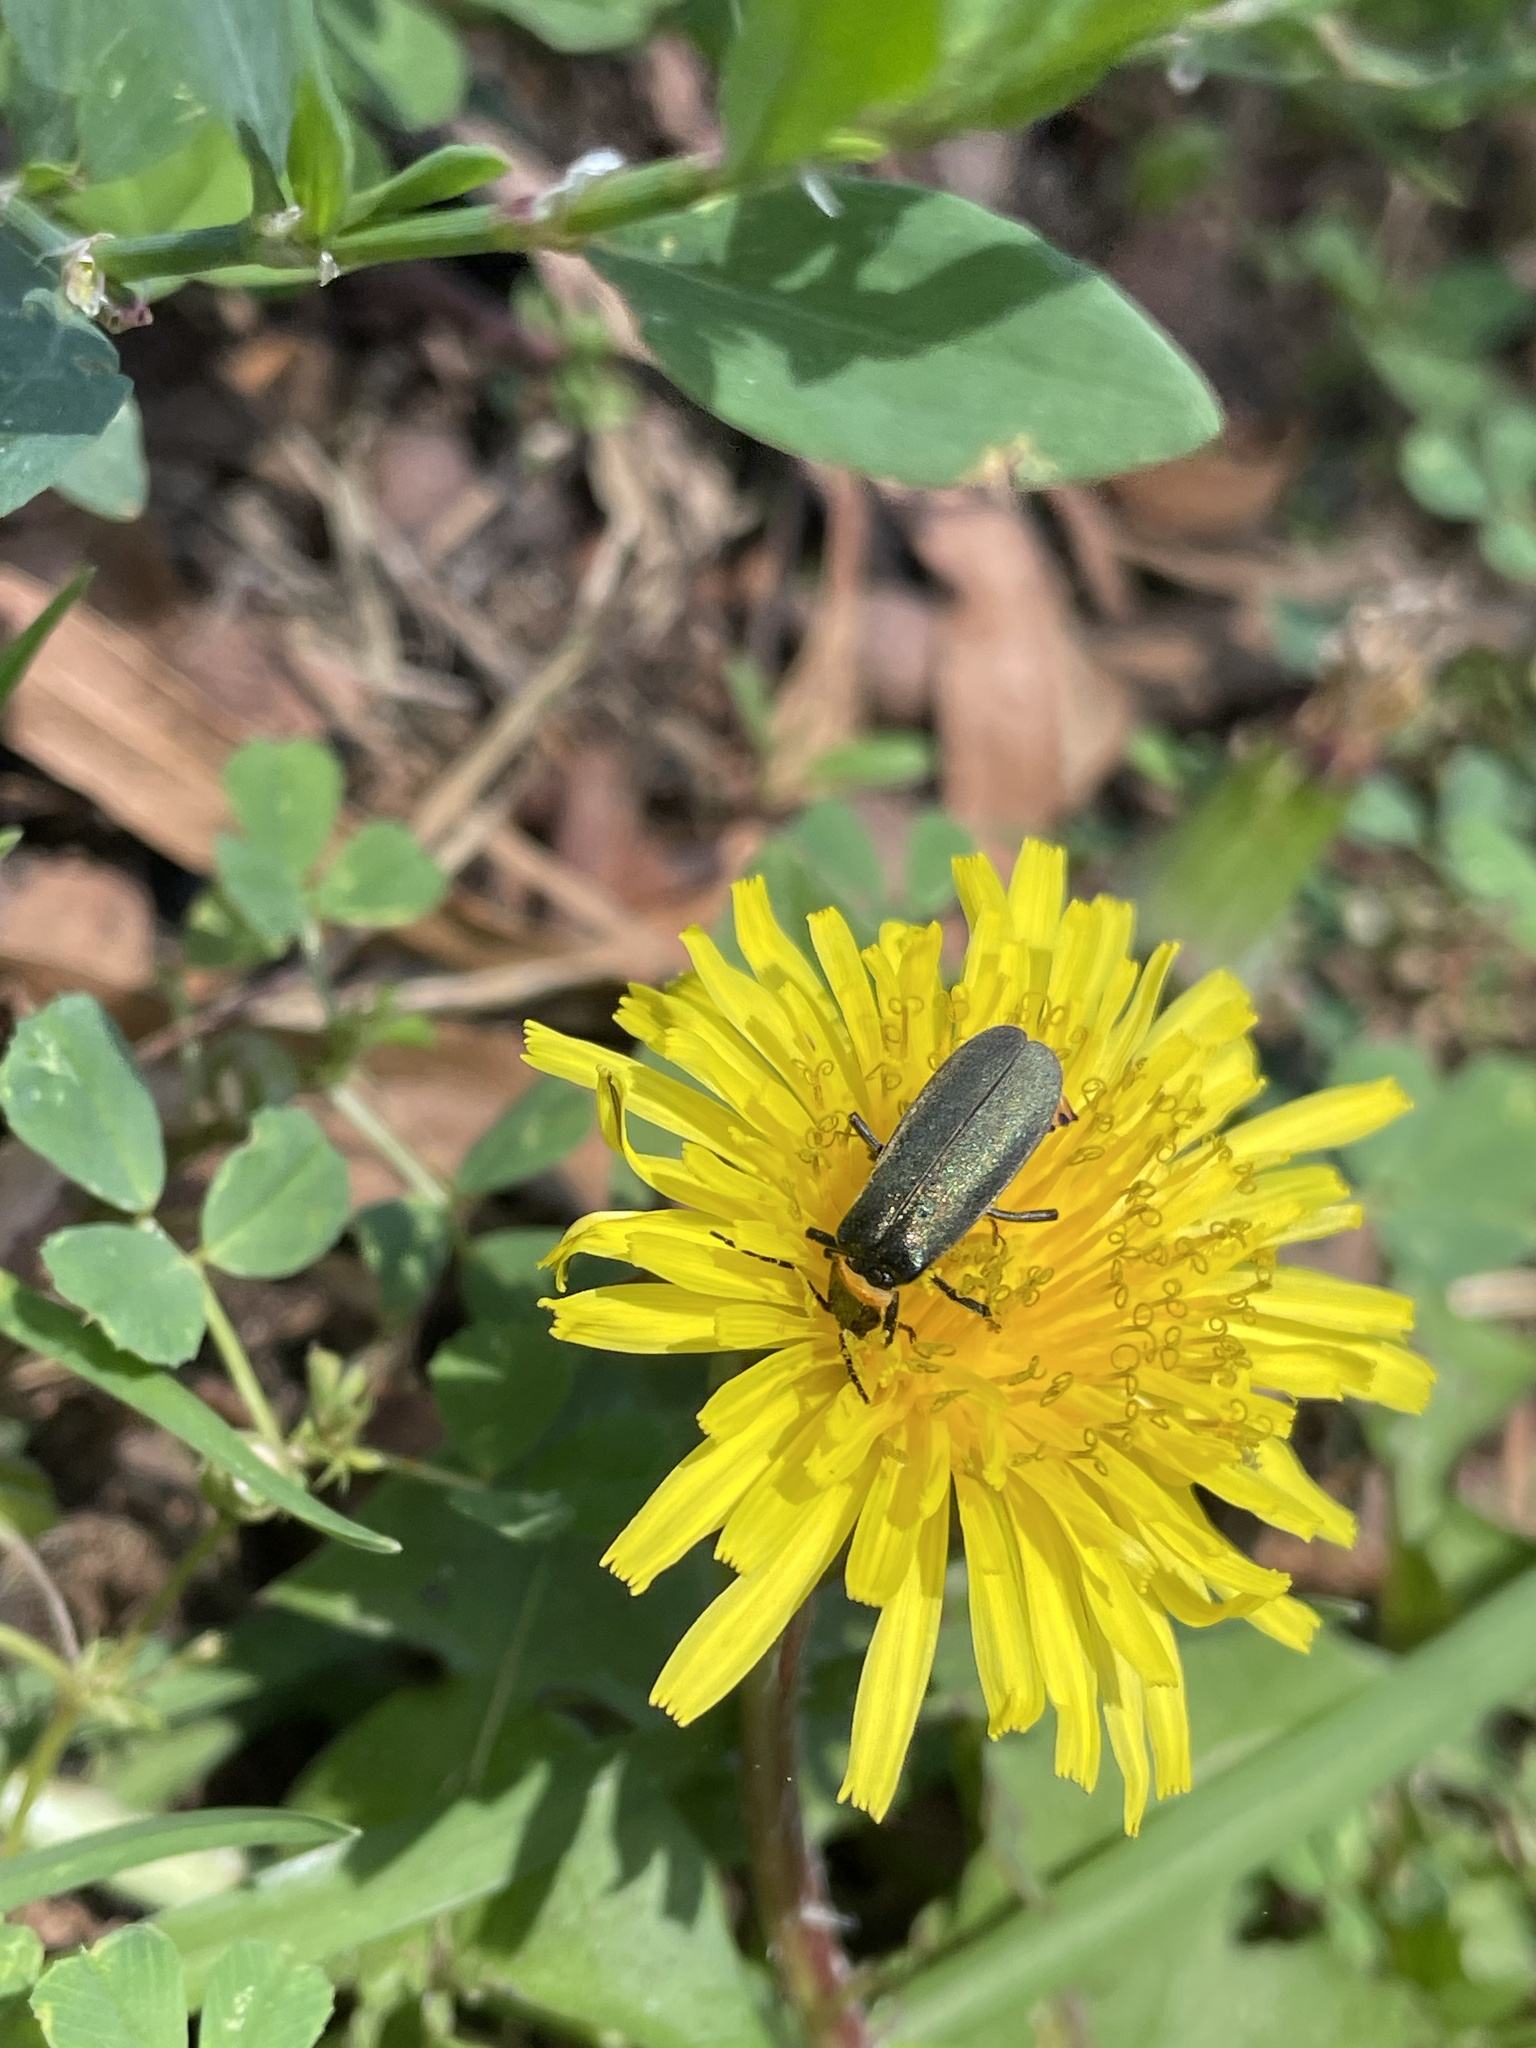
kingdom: Animalia
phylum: Arthropoda
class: Insecta
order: Coleoptera
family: Cantharidae
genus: Chauliognathus
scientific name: Chauliognathus
